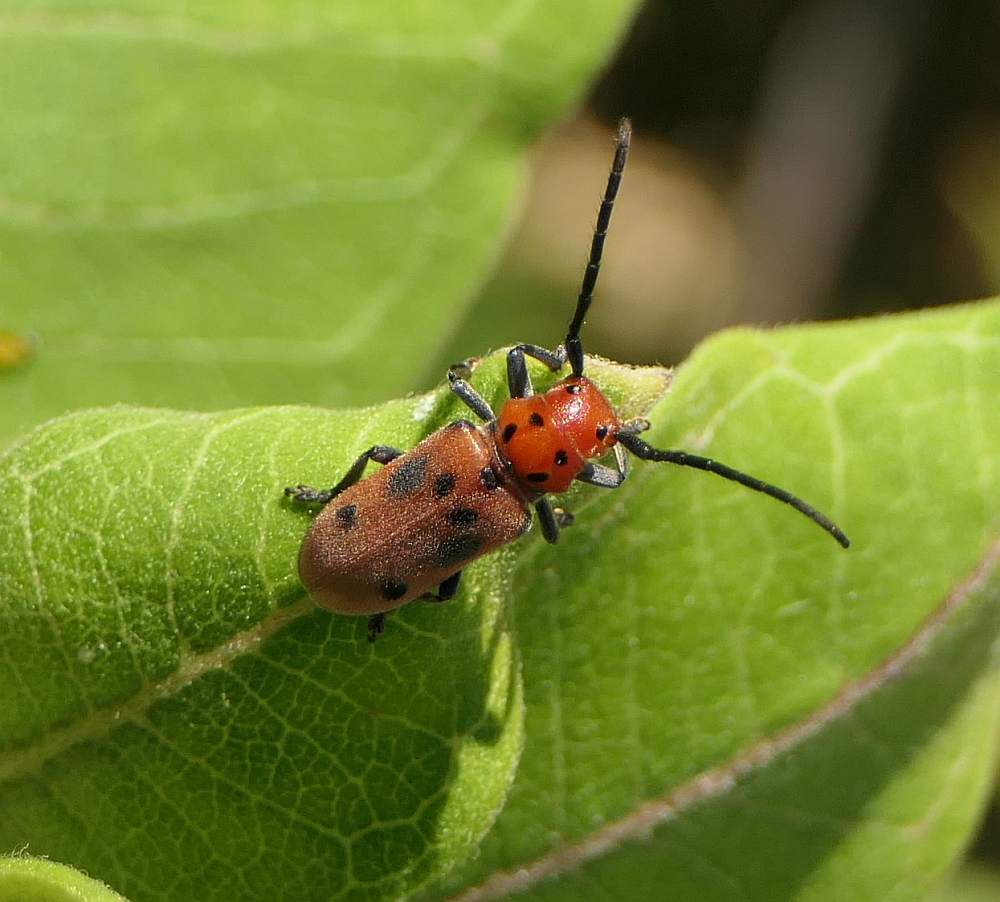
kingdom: Animalia
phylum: Arthropoda
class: Insecta
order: Coleoptera
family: Cerambycidae
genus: Tetraopes
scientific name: Tetraopes tetrophthalmus
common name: Red milkweed beetle
